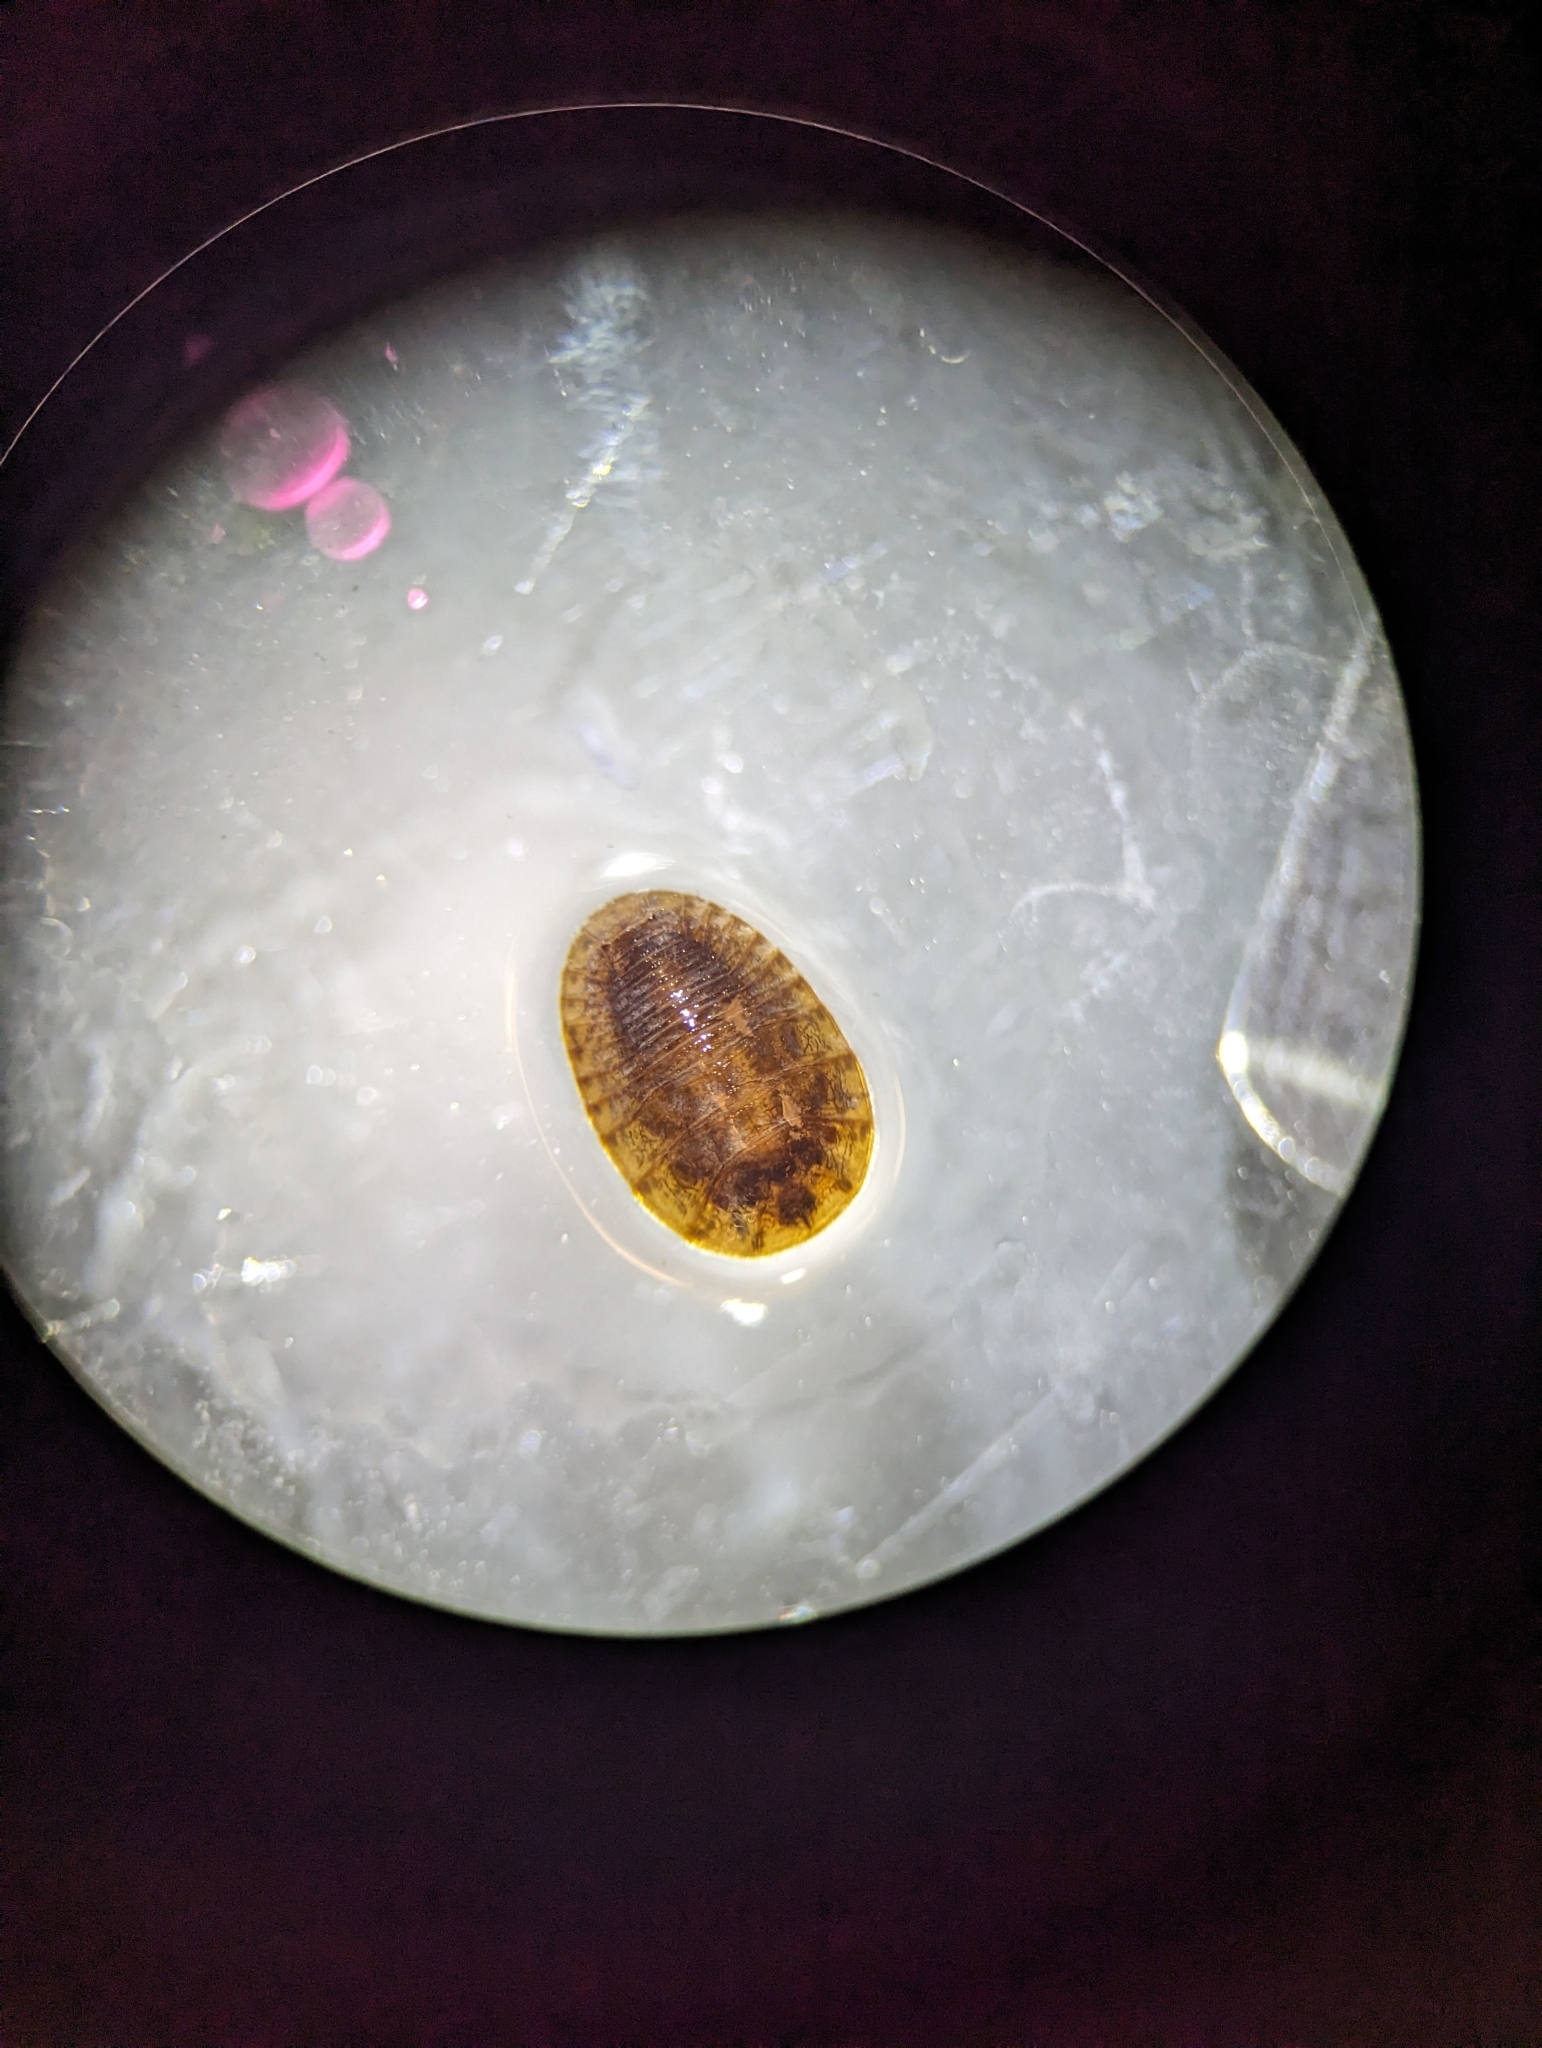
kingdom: Animalia
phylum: Arthropoda
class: Insecta
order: Coleoptera
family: Psephenidae
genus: Psephenus
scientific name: Psephenus herricki
